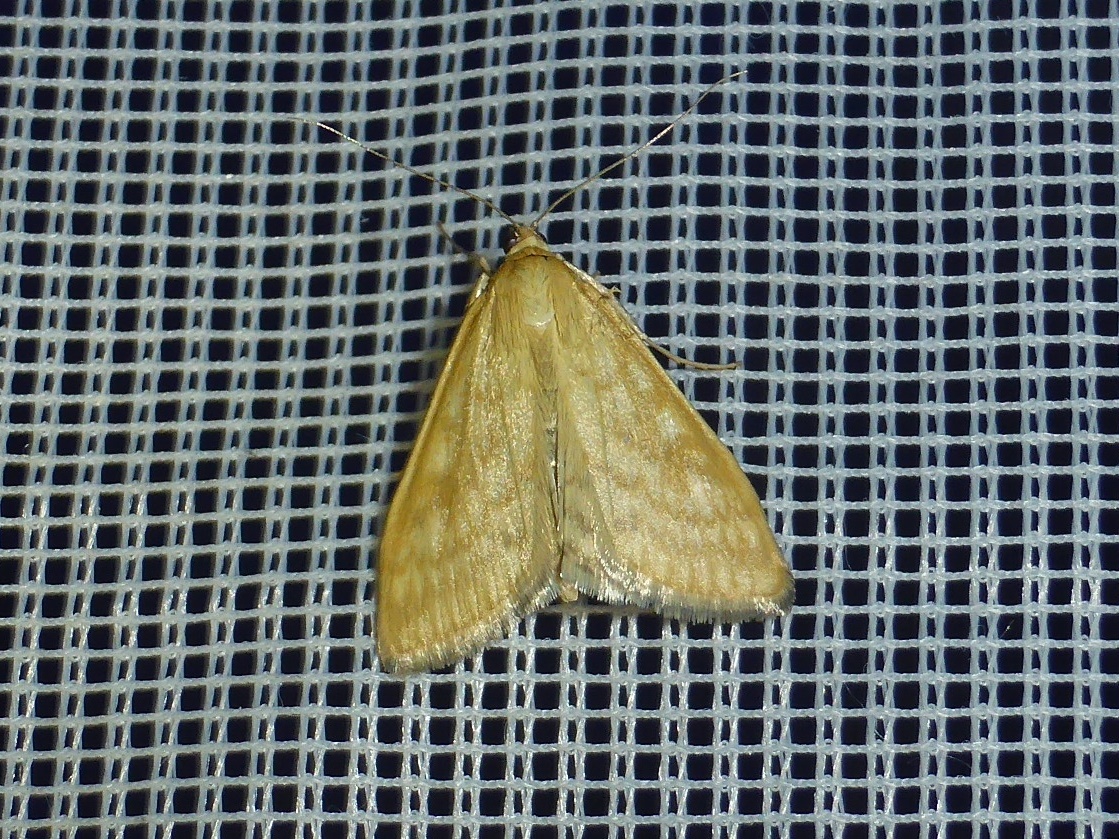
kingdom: Animalia
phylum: Arthropoda
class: Insecta
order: Lepidoptera
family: Crambidae
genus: Sitochroa
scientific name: Sitochroa verticalis
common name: Lesser pearl
